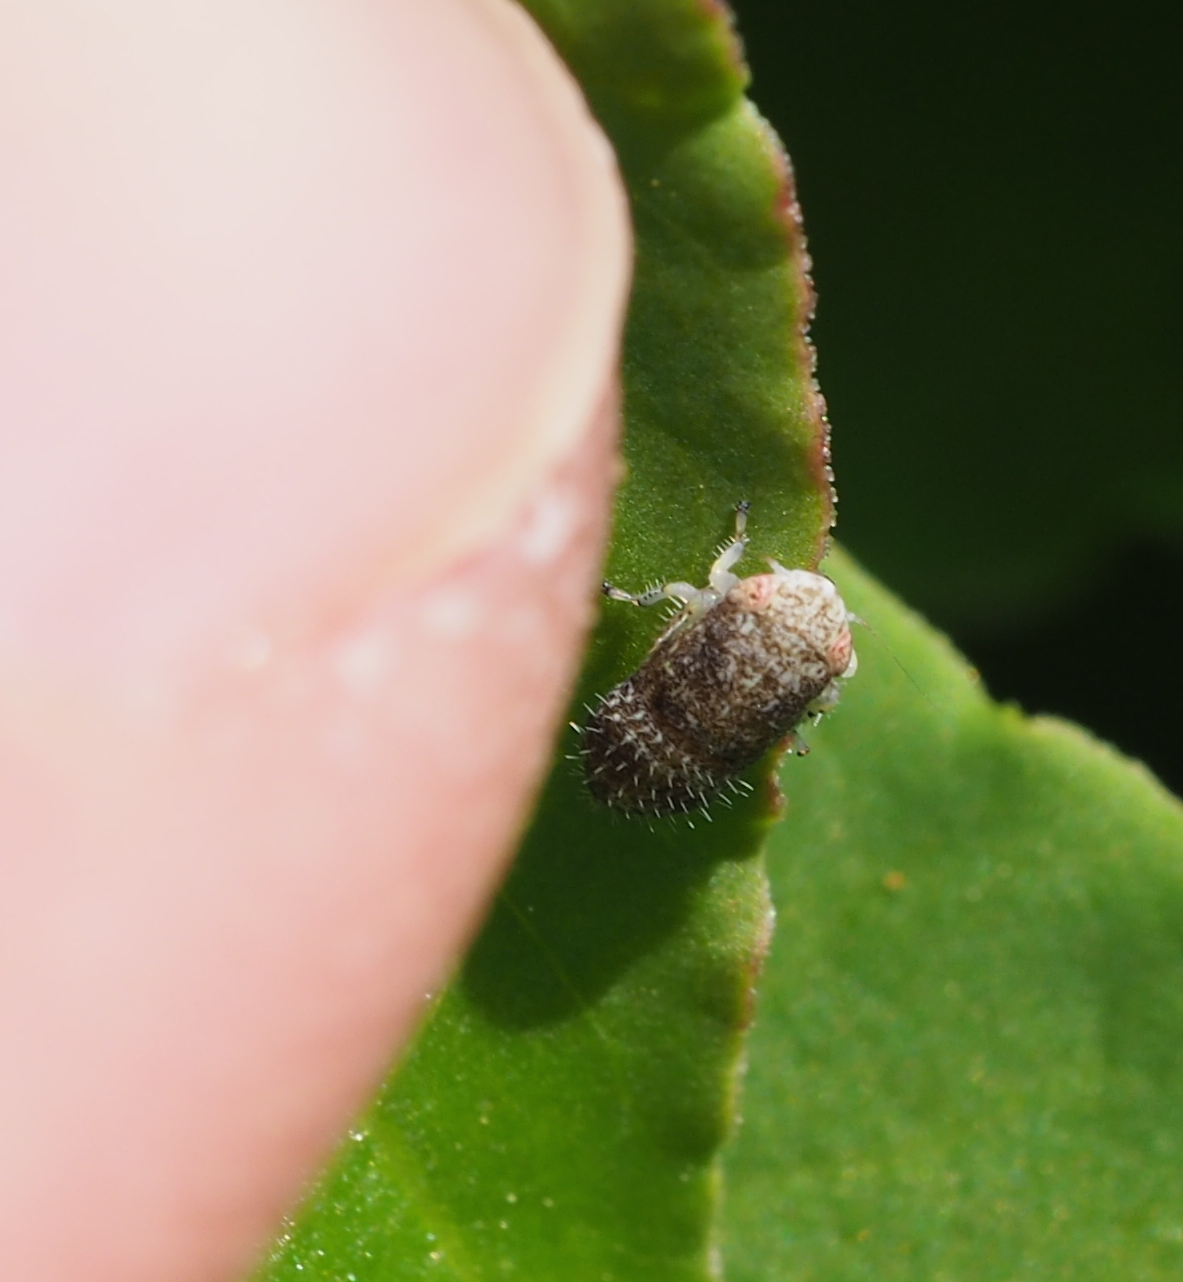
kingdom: Animalia
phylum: Arthropoda
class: Insecta
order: Hemiptera
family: Cicadellidae
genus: Allygidius
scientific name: Allygidius
